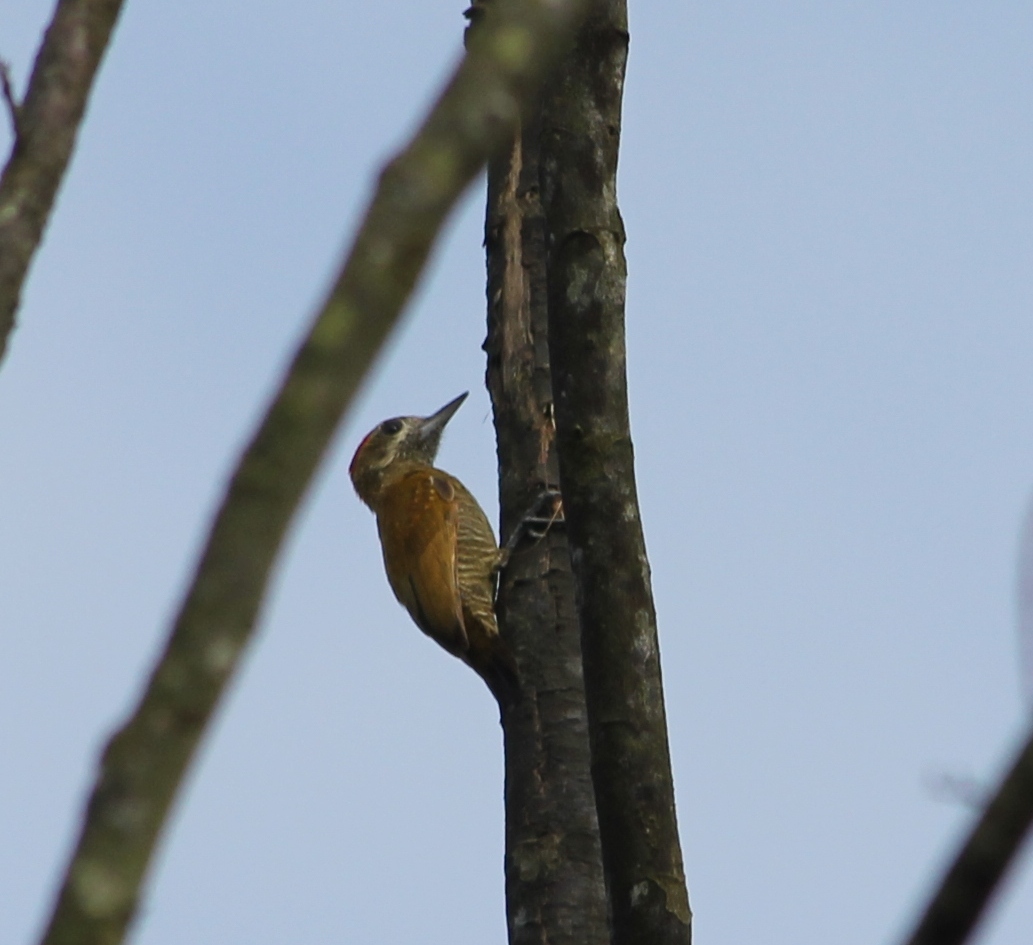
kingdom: Animalia
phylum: Chordata
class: Aves
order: Piciformes
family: Picidae
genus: Veniliornis
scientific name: Veniliornis passerinus
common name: Little woodpecker
